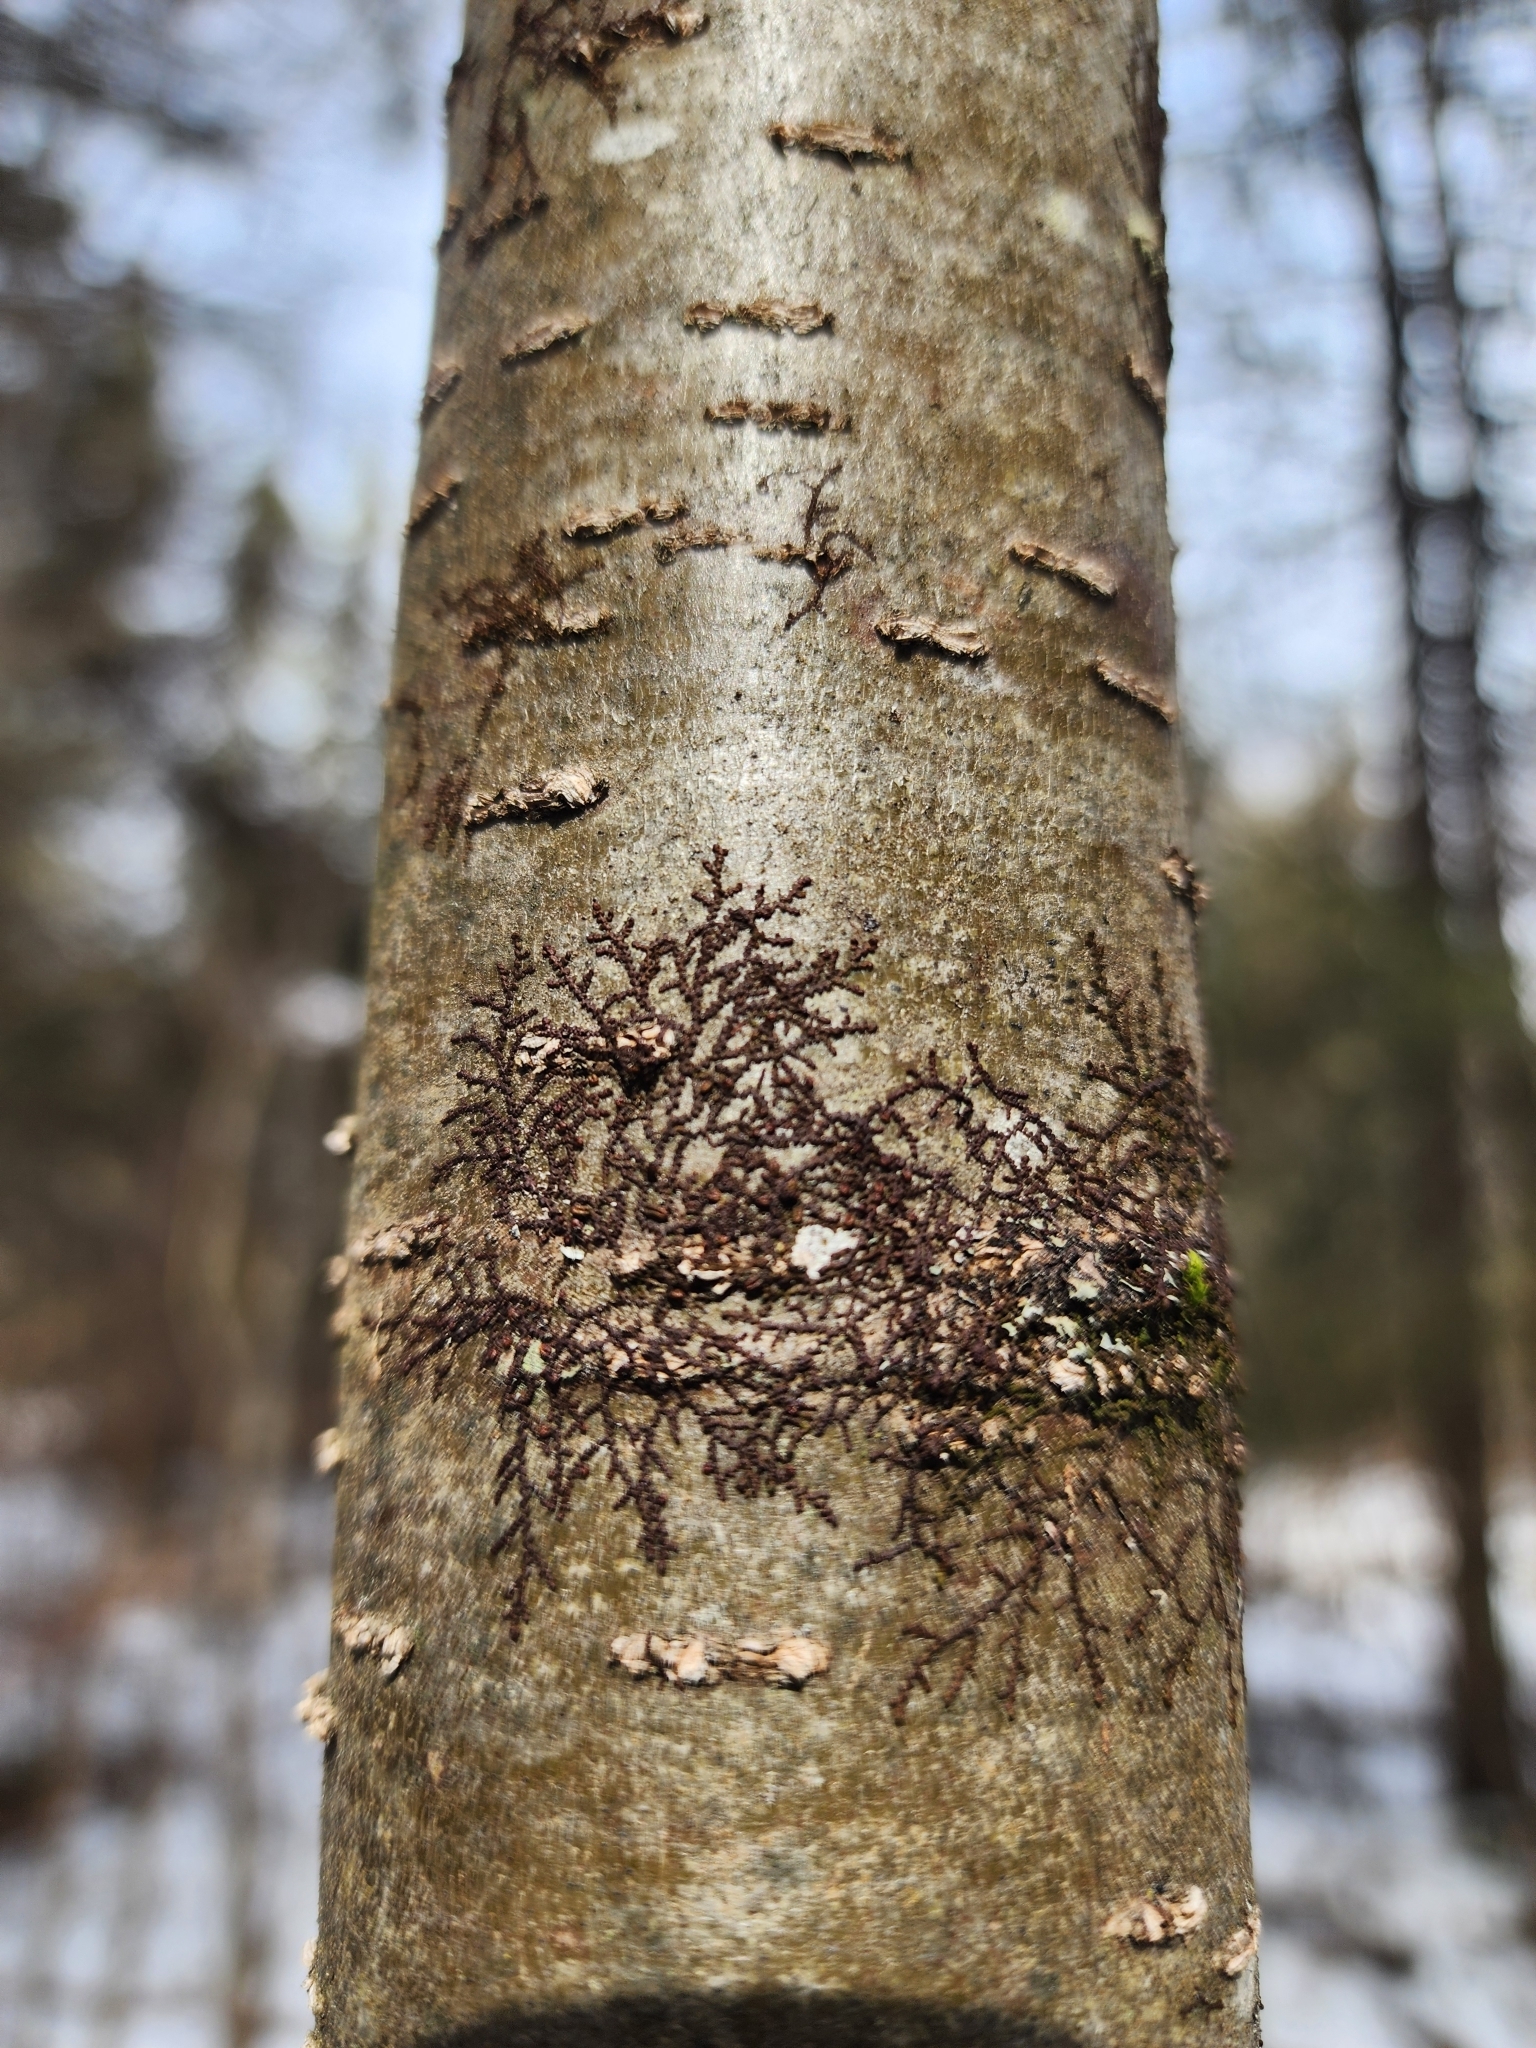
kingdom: Plantae
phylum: Marchantiophyta
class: Jungermanniopsida
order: Porellales
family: Frullaniaceae
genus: Frullania
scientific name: Frullania eboracensis
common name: New york scalewort
